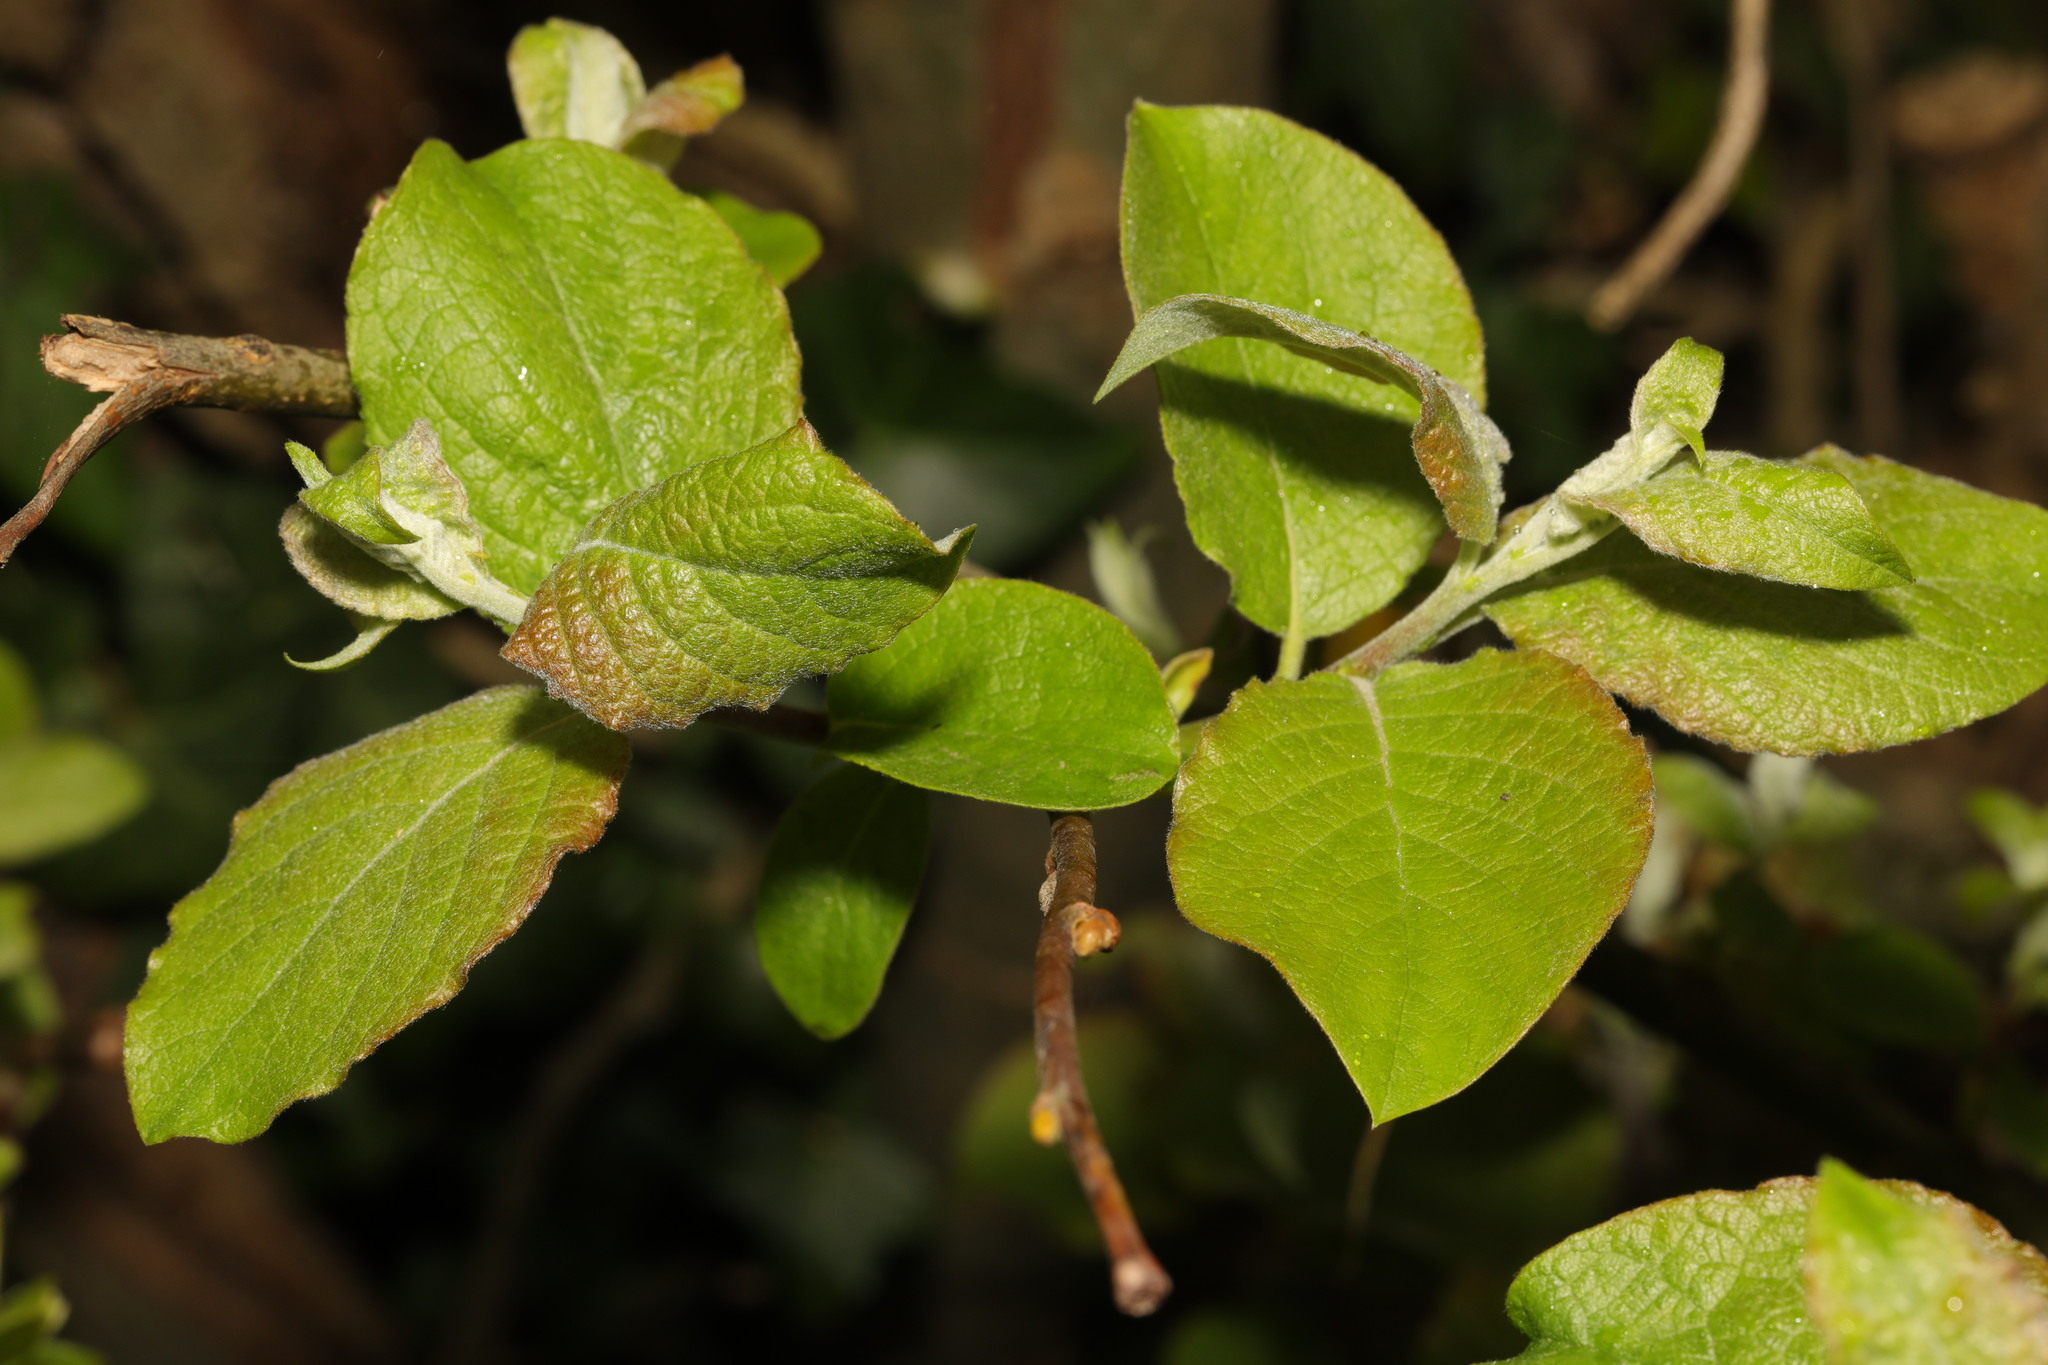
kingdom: Plantae
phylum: Tracheophyta
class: Magnoliopsida
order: Malpighiales
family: Salicaceae
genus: Salix
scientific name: Salix caprea
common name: Goat willow
